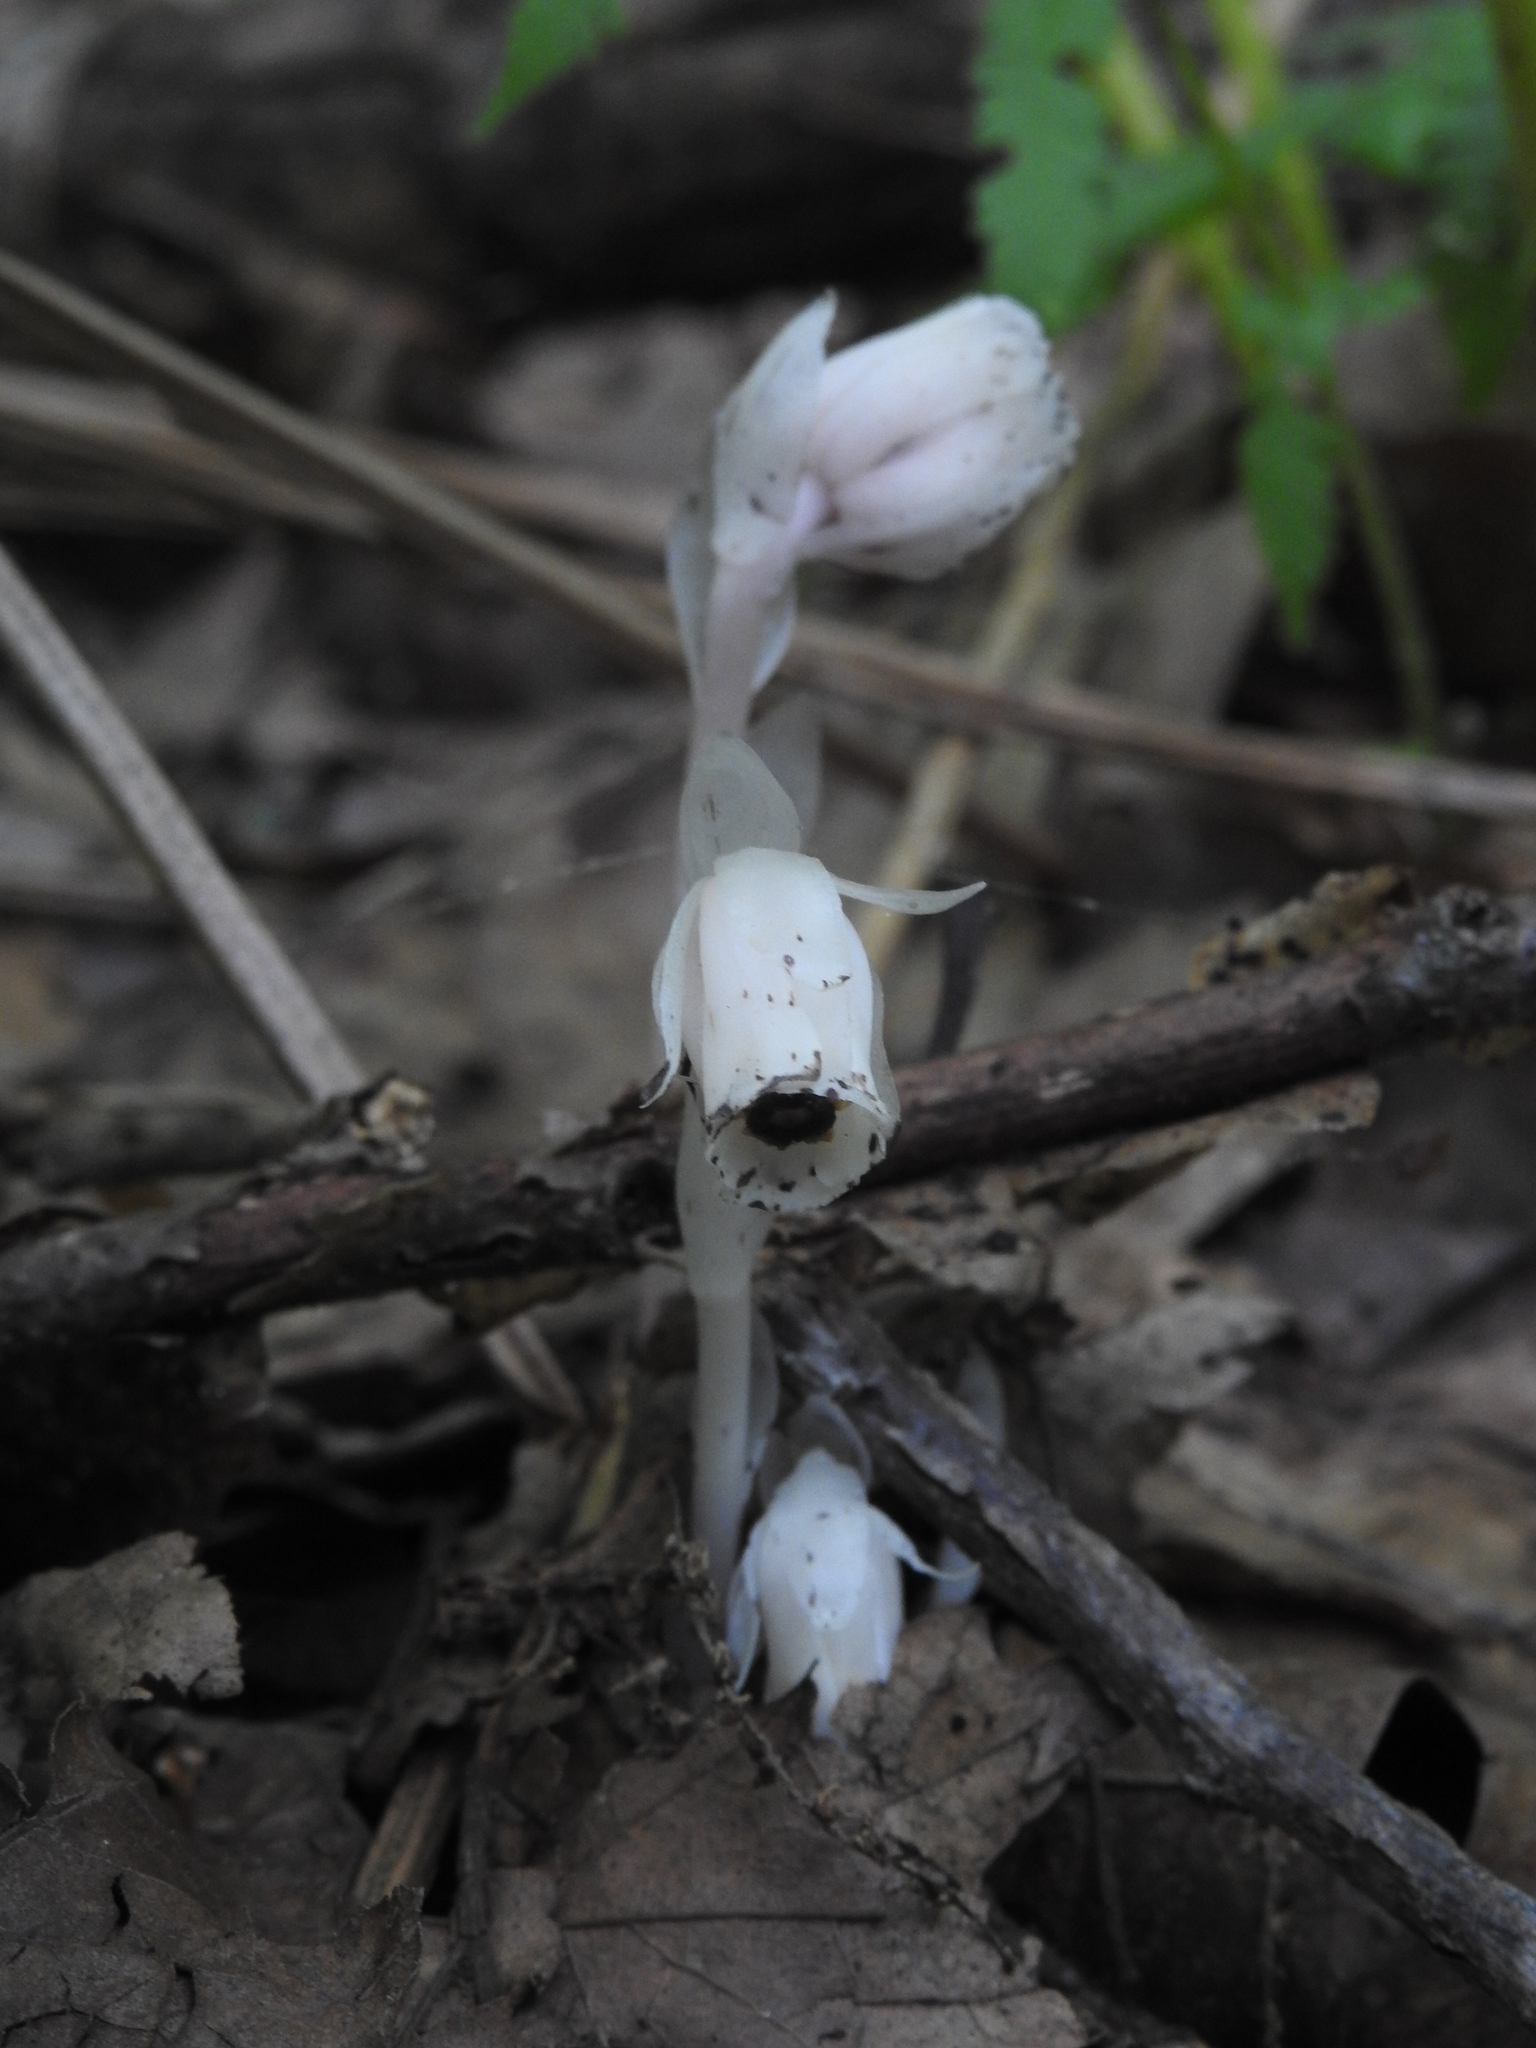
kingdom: Plantae
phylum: Tracheophyta
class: Magnoliopsida
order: Ericales
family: Ericaceae
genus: Monotropa
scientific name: Monotropa uniflora
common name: Convulsion root
